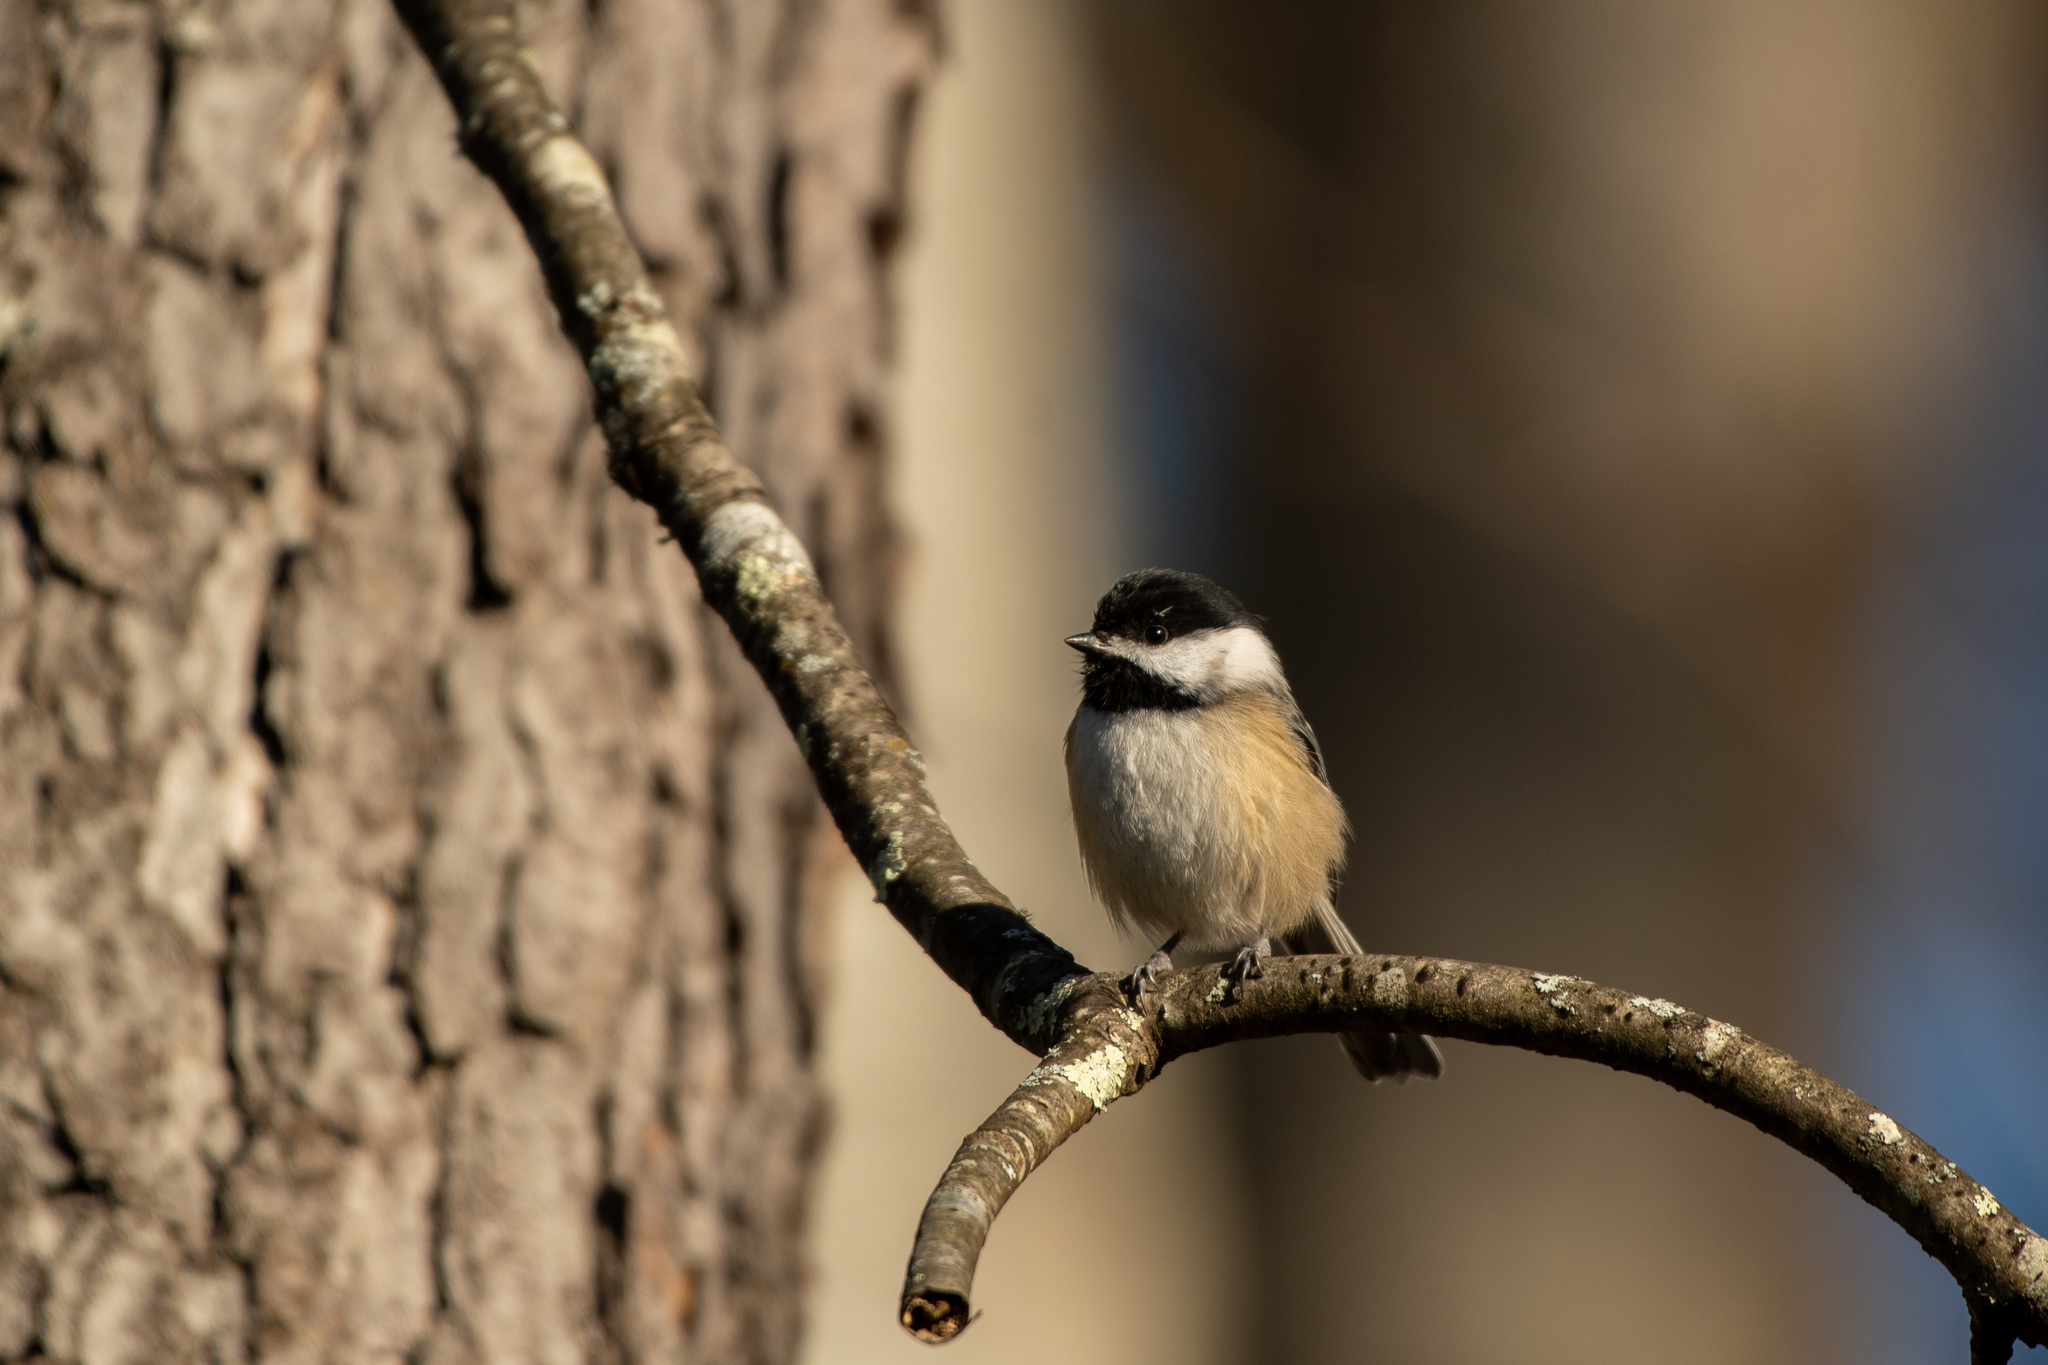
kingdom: Animalia
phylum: Chordata
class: Aves
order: Passeriformes
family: Paridae
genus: Poecile
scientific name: Poecile atricapillus
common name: Black-capped chickadee
